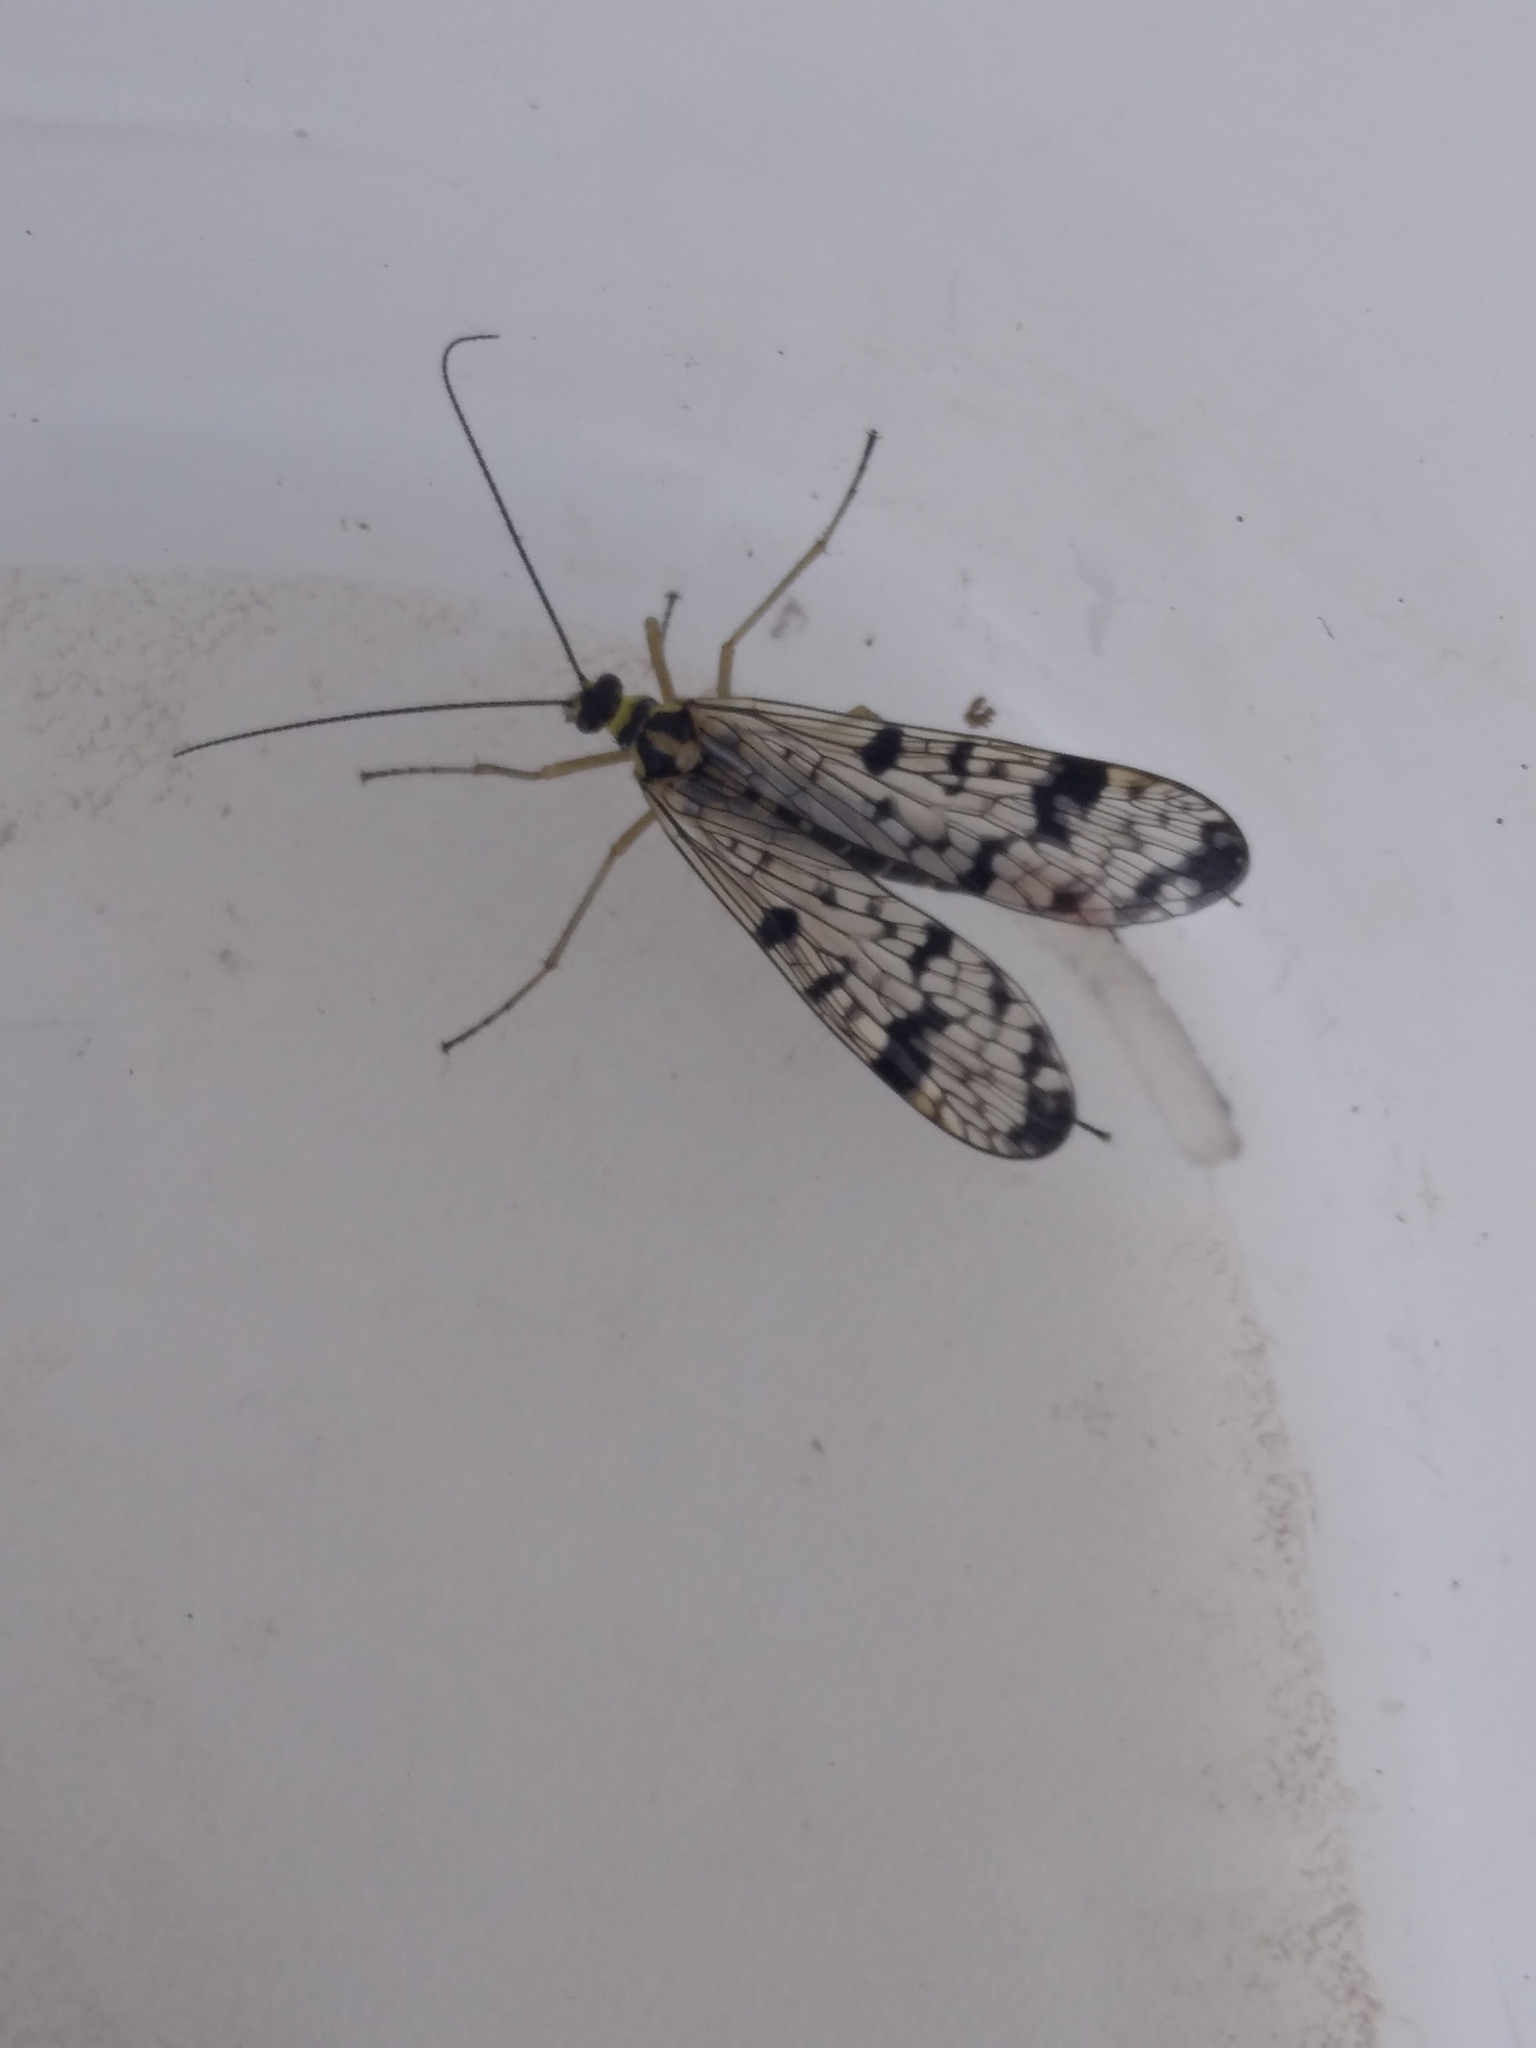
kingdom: Animalia
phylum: Arthropoda
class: Insecta
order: Mecoptera
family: Panorpidae
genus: Panorpa
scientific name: Panorpa hybrida
